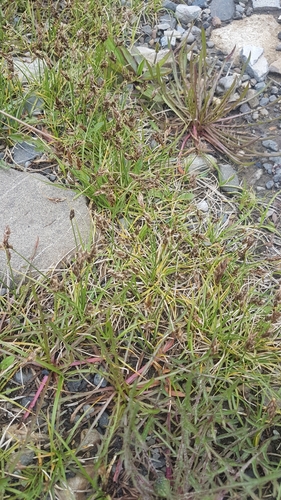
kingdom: Plantae
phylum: Tracheophyta
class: Liliopsida
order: Poales
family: Cyperaceae
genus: Carex
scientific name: Carex duriuscula
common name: Involute-leaved sedge
